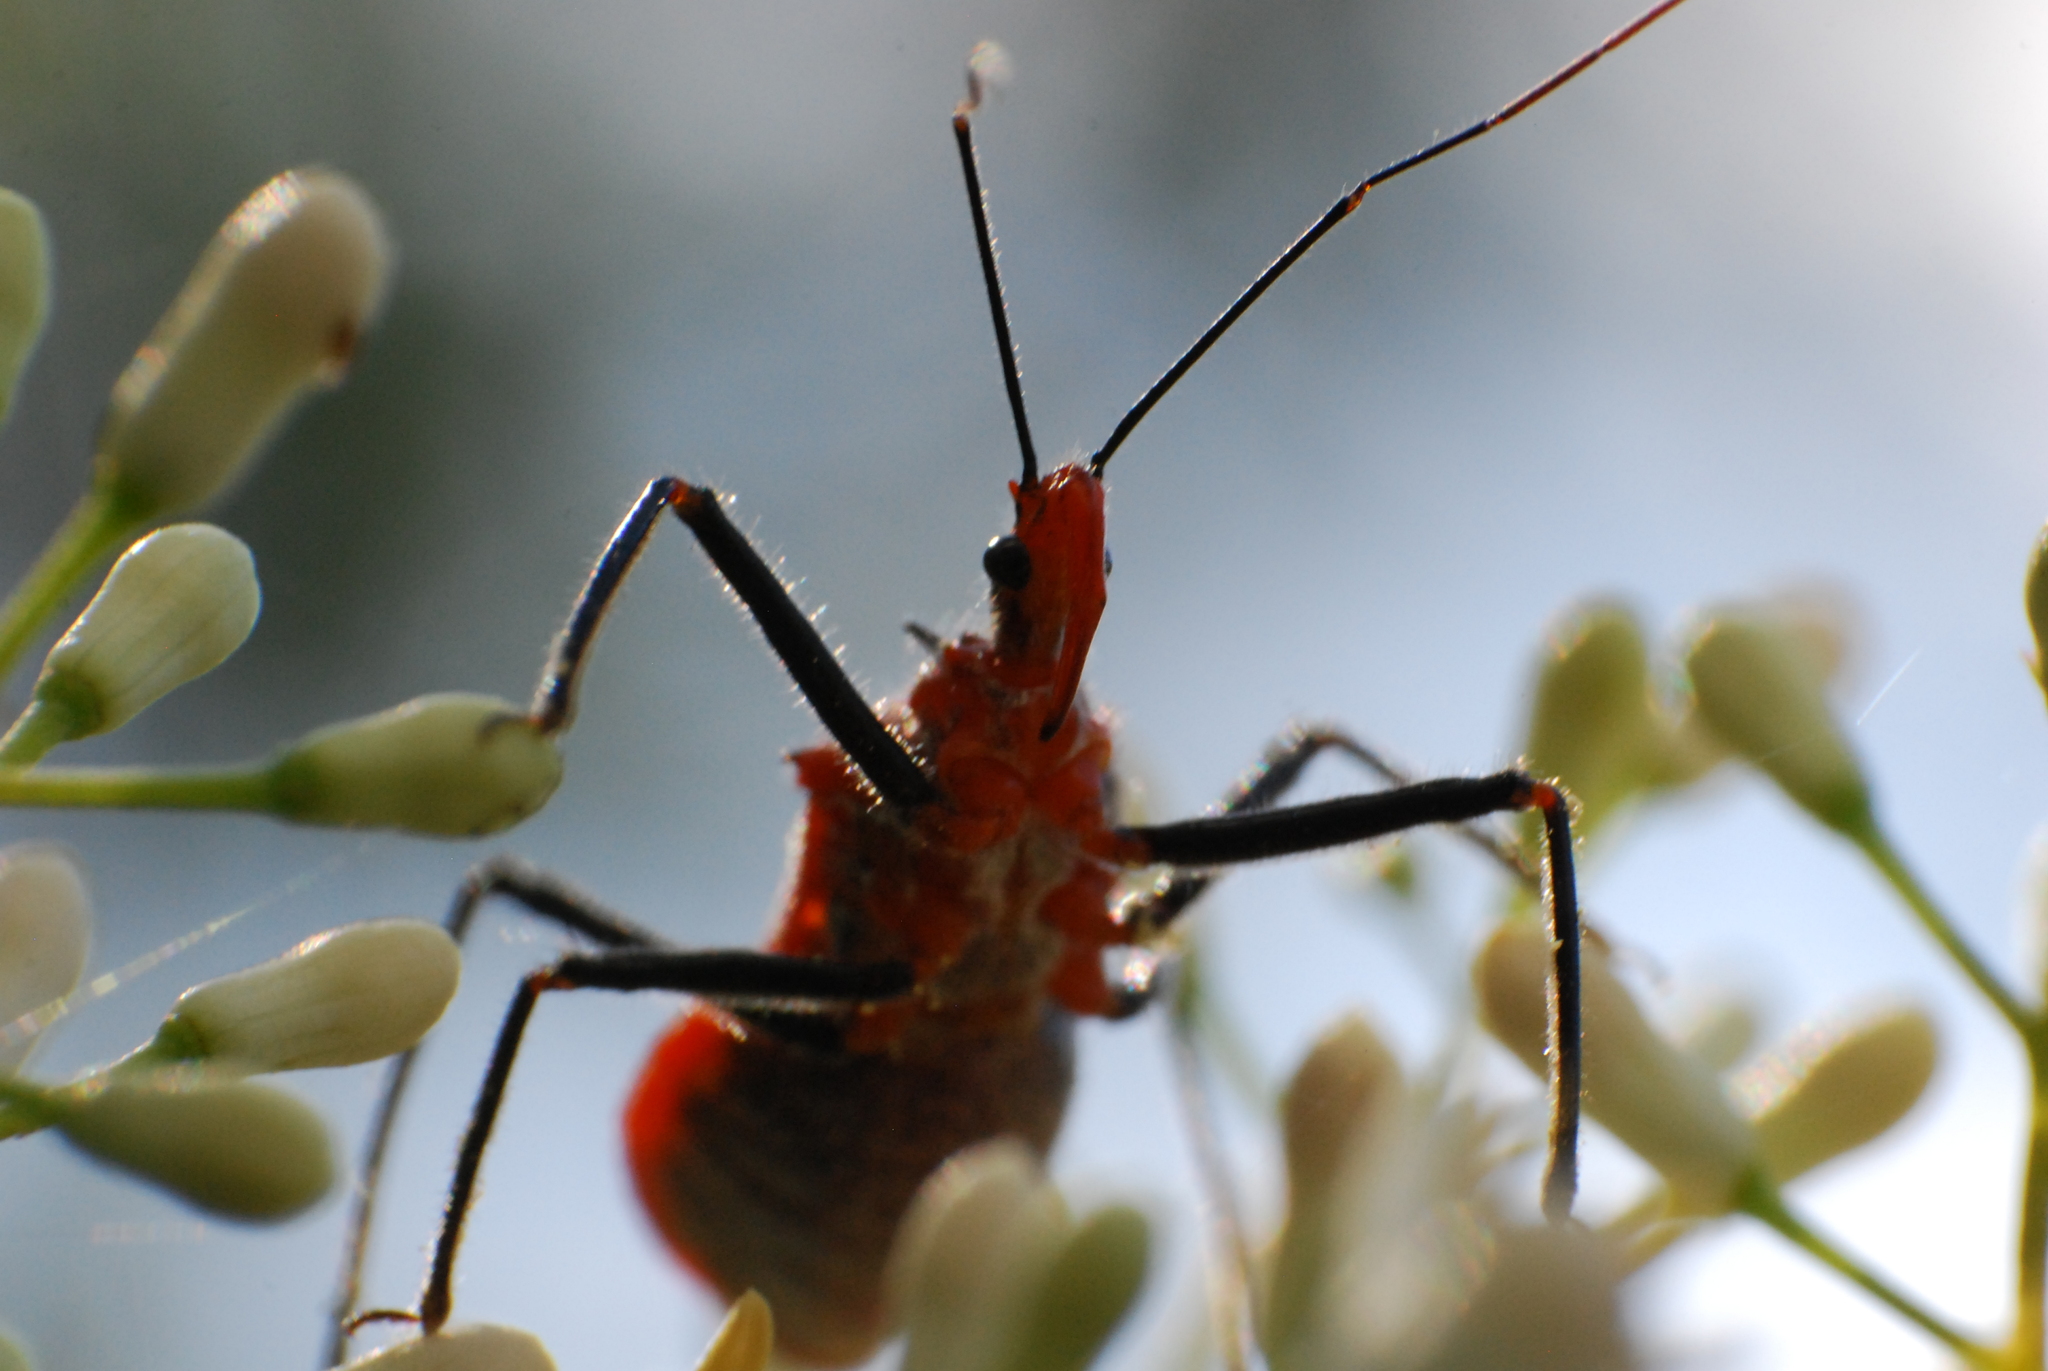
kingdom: Animalia
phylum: Arthropoda
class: Insecta
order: Hemiptera
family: Reduviidae
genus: Gminatus
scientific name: Gminatus australis
